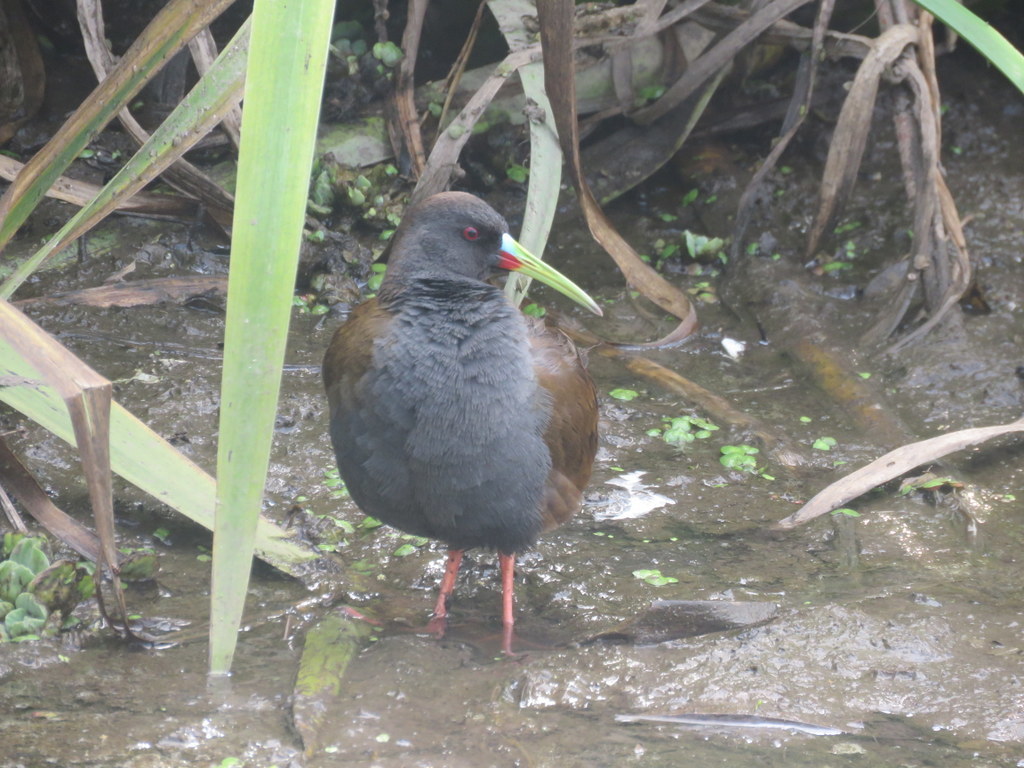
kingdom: Animalia
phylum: Chordata
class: Aves
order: Gruiformes
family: Rallidae
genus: Pardirallus
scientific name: Pardirallus sanguinolentus
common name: Plumbeous rail
